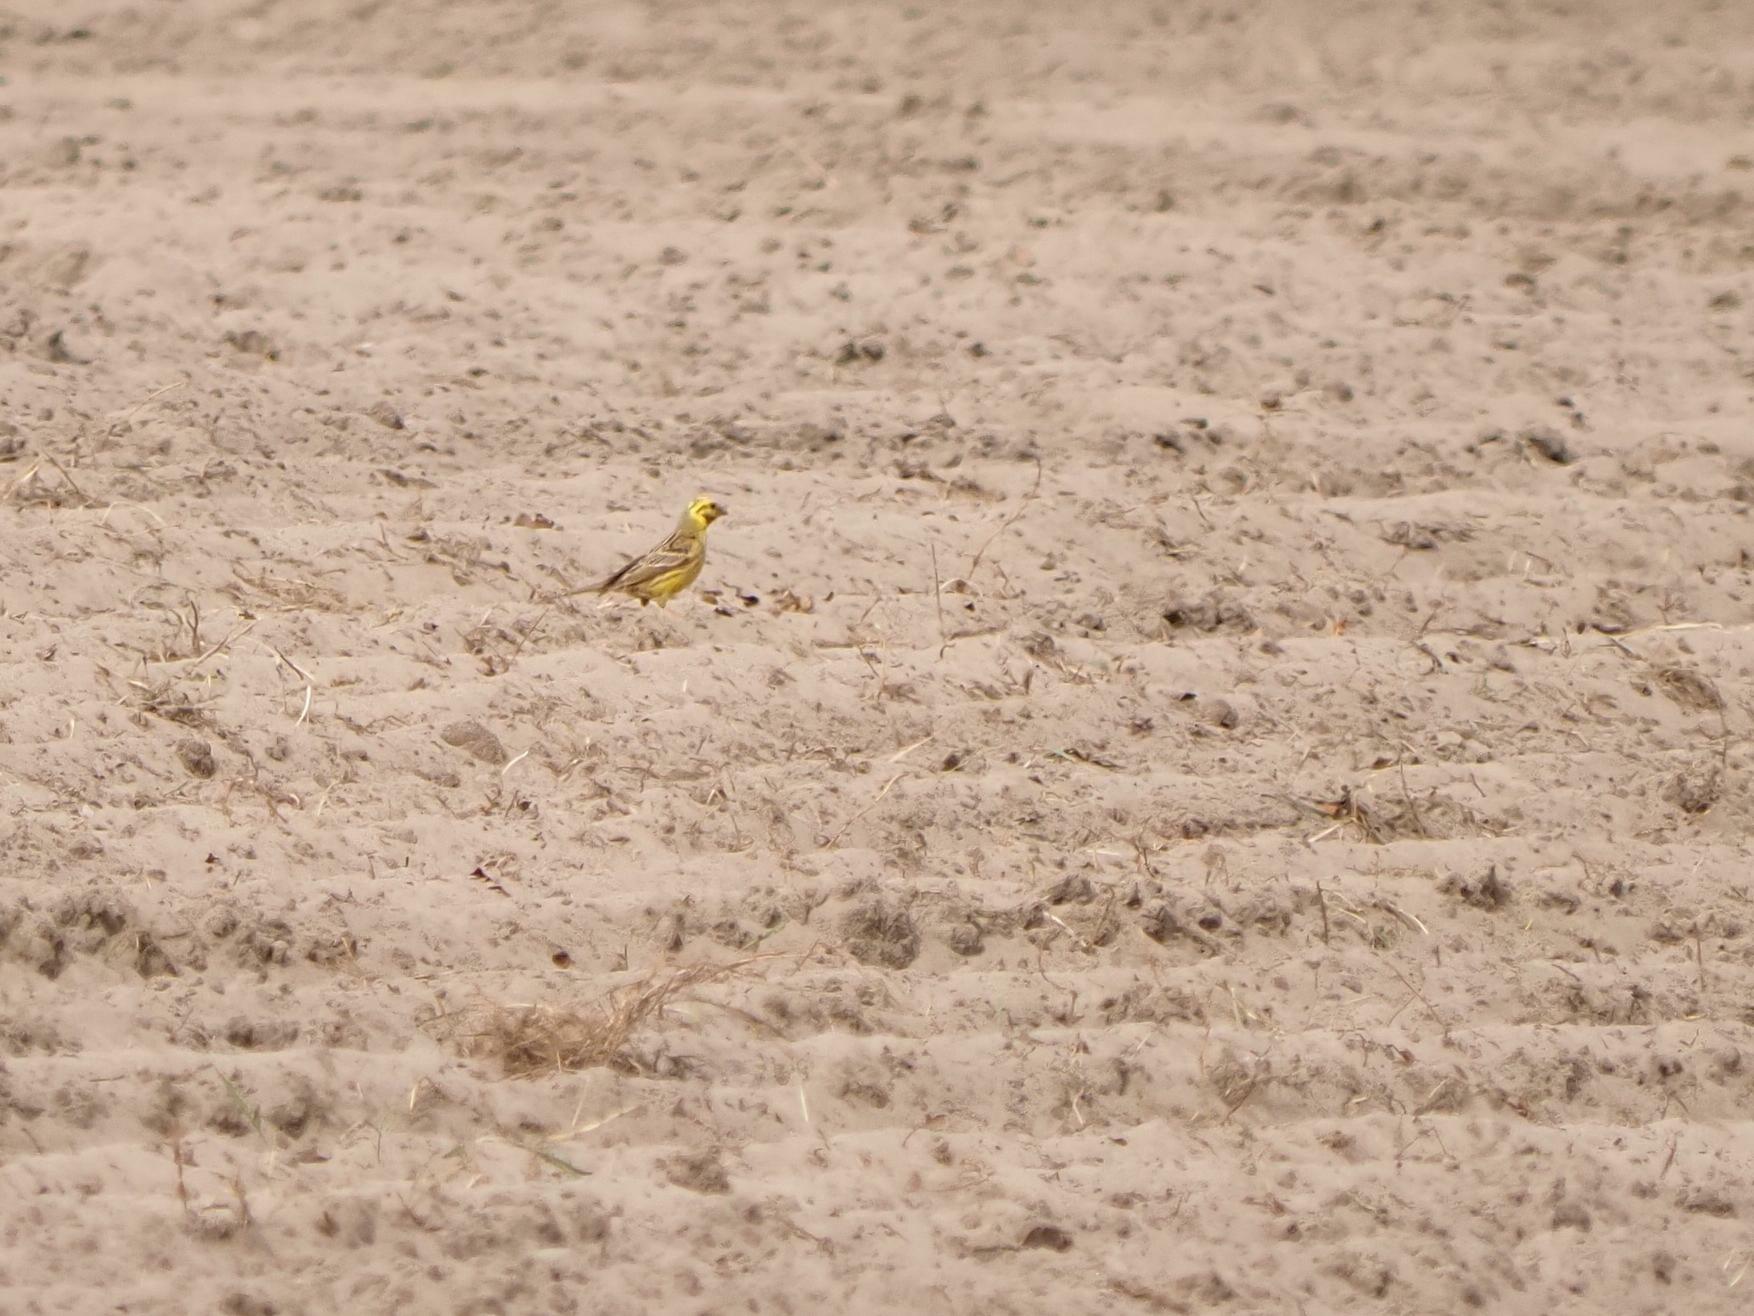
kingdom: Animalia
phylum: Chordata
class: Aves
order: Passeriformes
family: Emberizidae
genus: Emberiza
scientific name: Emberiza citrinella
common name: Yellowhammer
